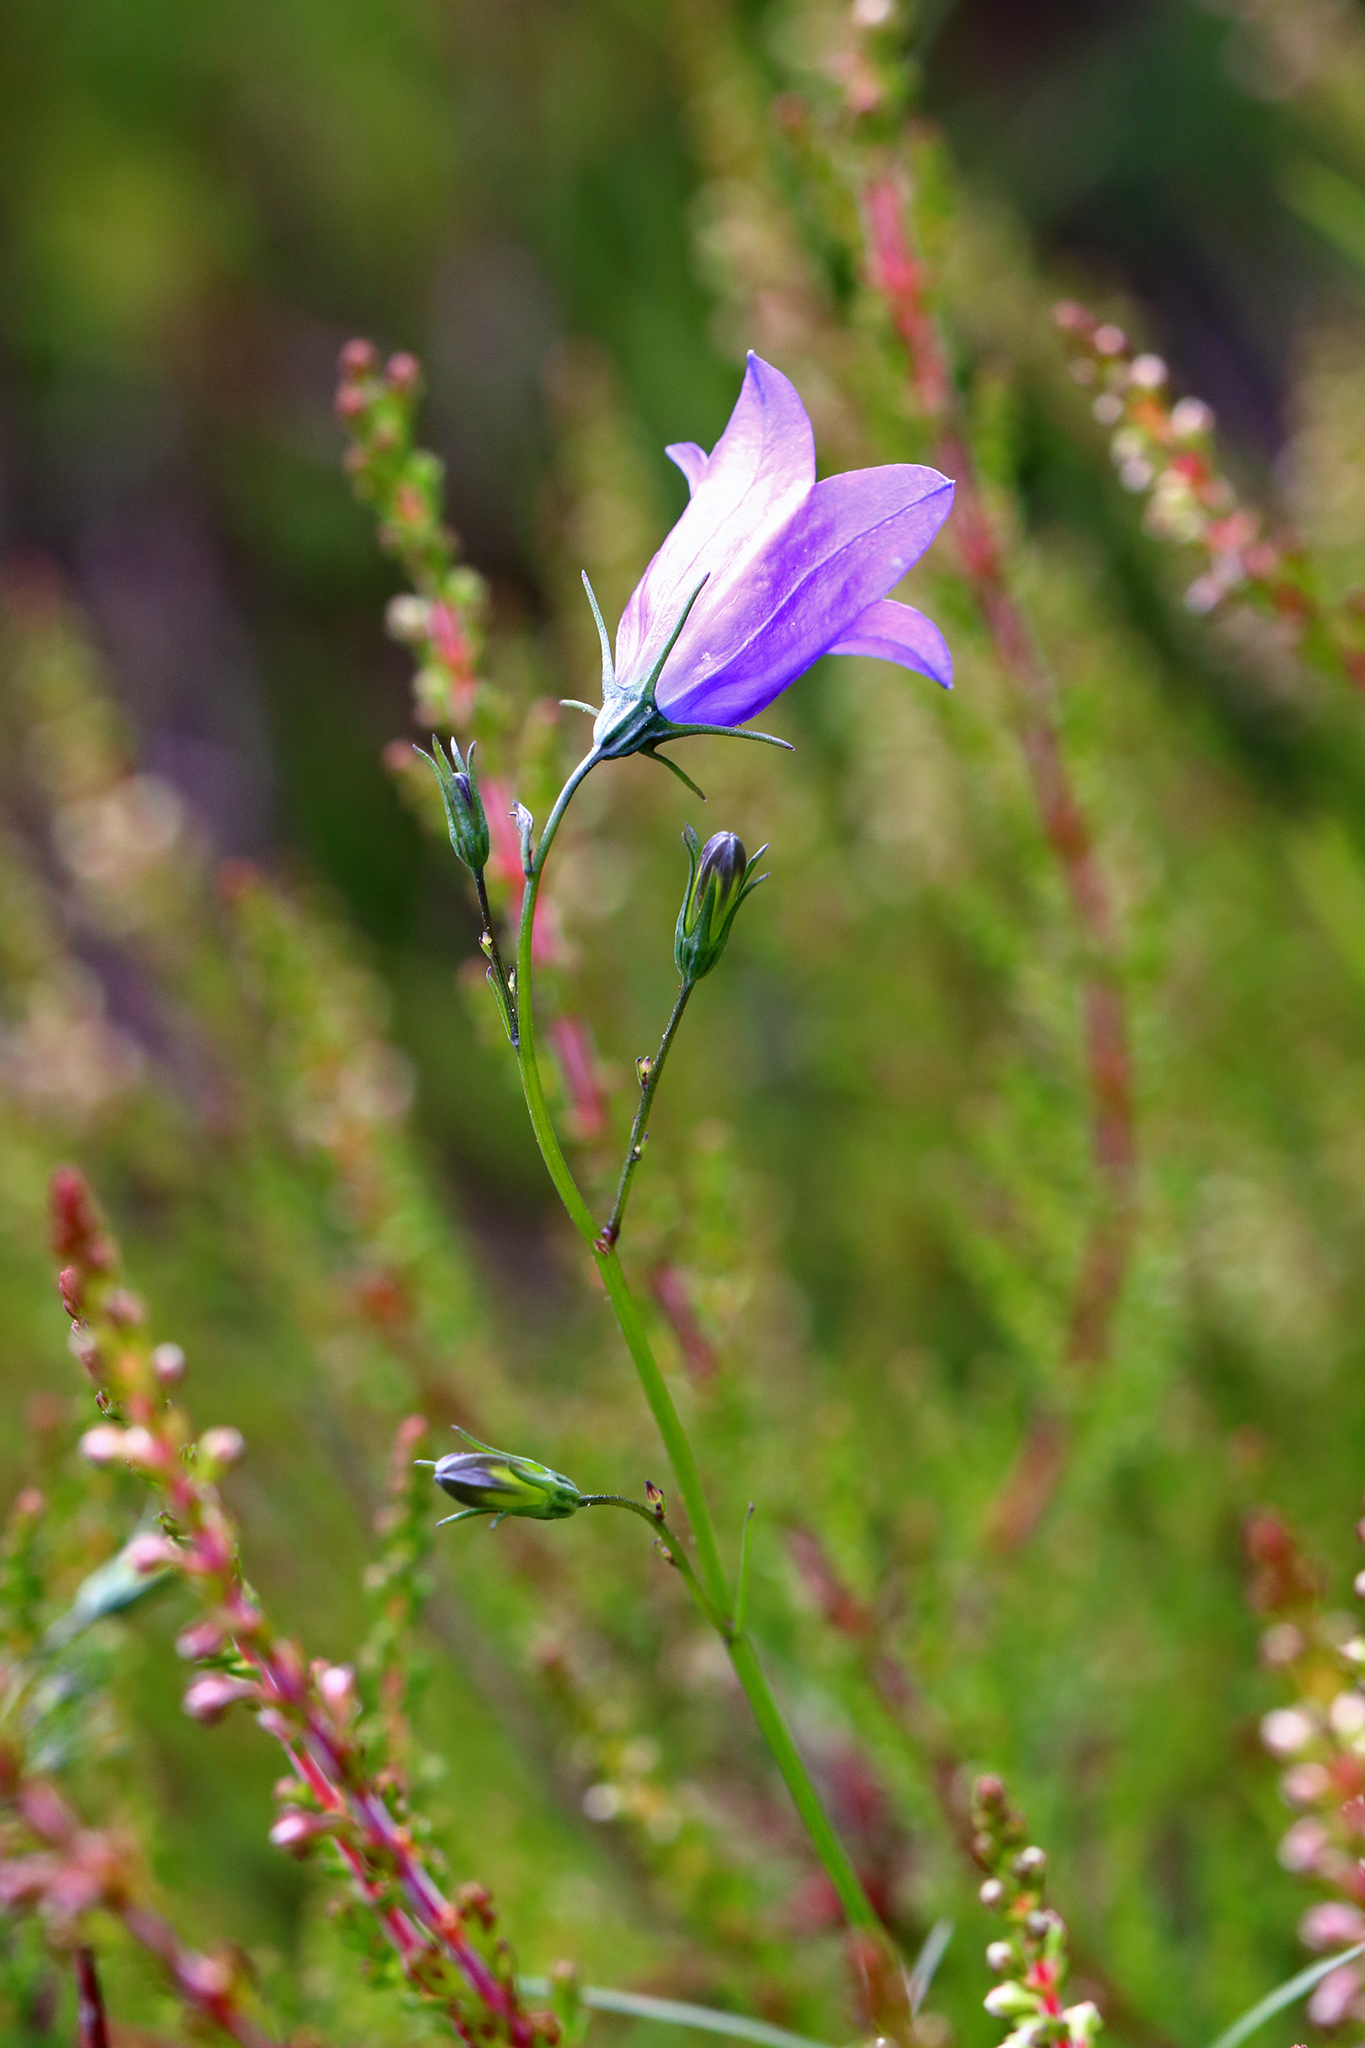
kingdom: Plantae
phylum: Tracheophyta
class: Magnoliopsida
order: Asterales
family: Campanulaceae
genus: Campanula
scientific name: Campanula rotundifolia
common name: Harebell
